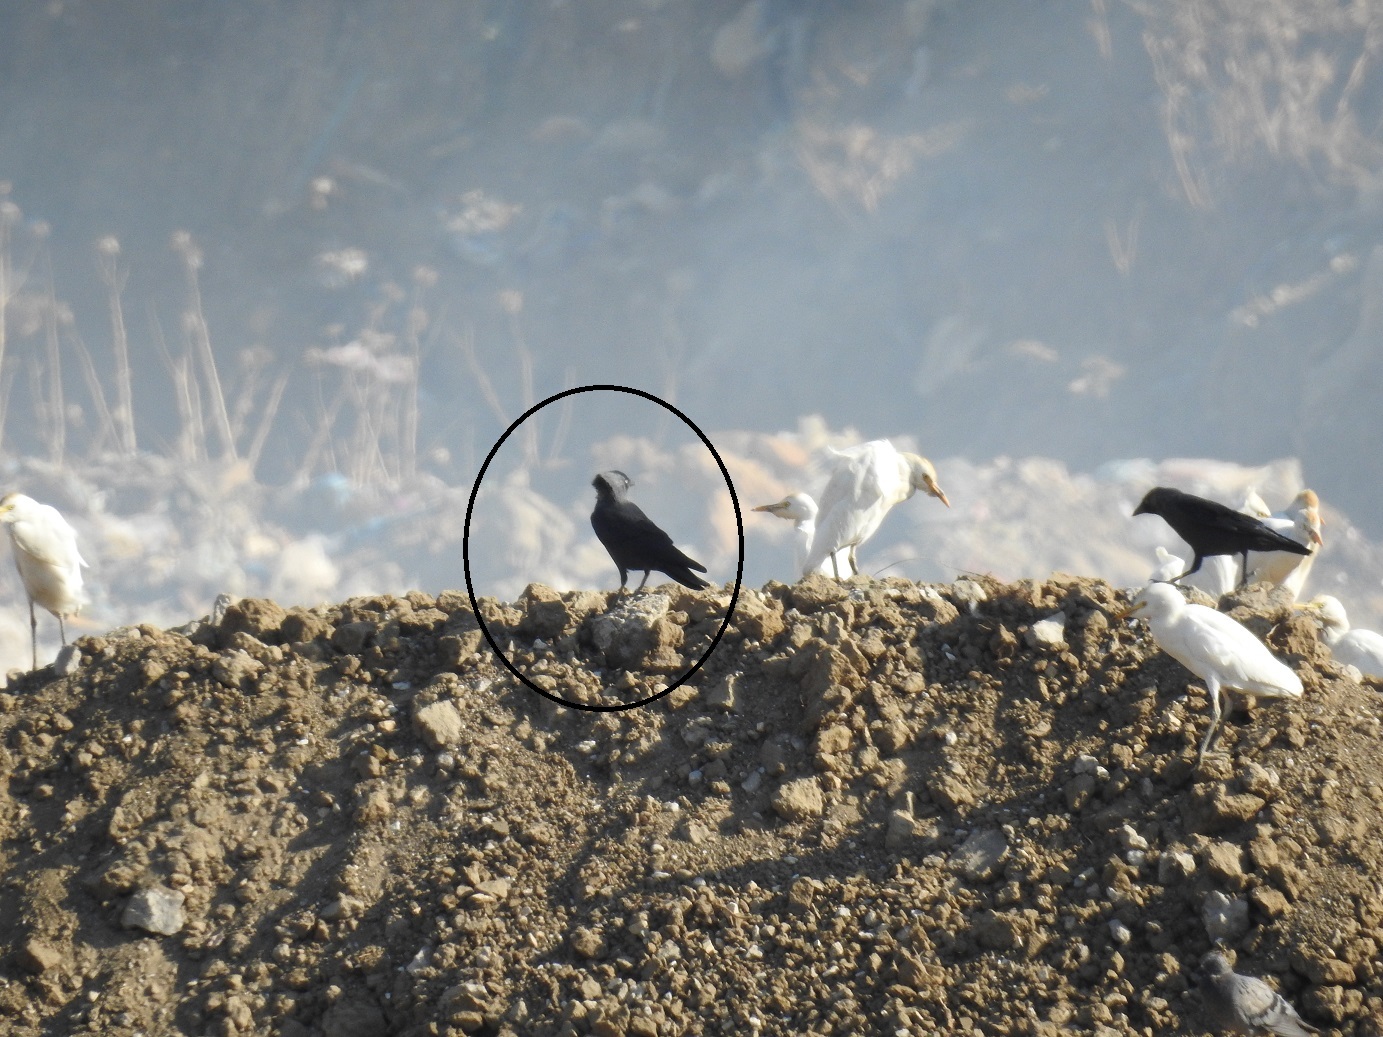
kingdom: Animalia
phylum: Chordata
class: Aves
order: Passeriformes
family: Corvidae
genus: Coloeus
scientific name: Coloeus monedula
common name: Western jackdaw
